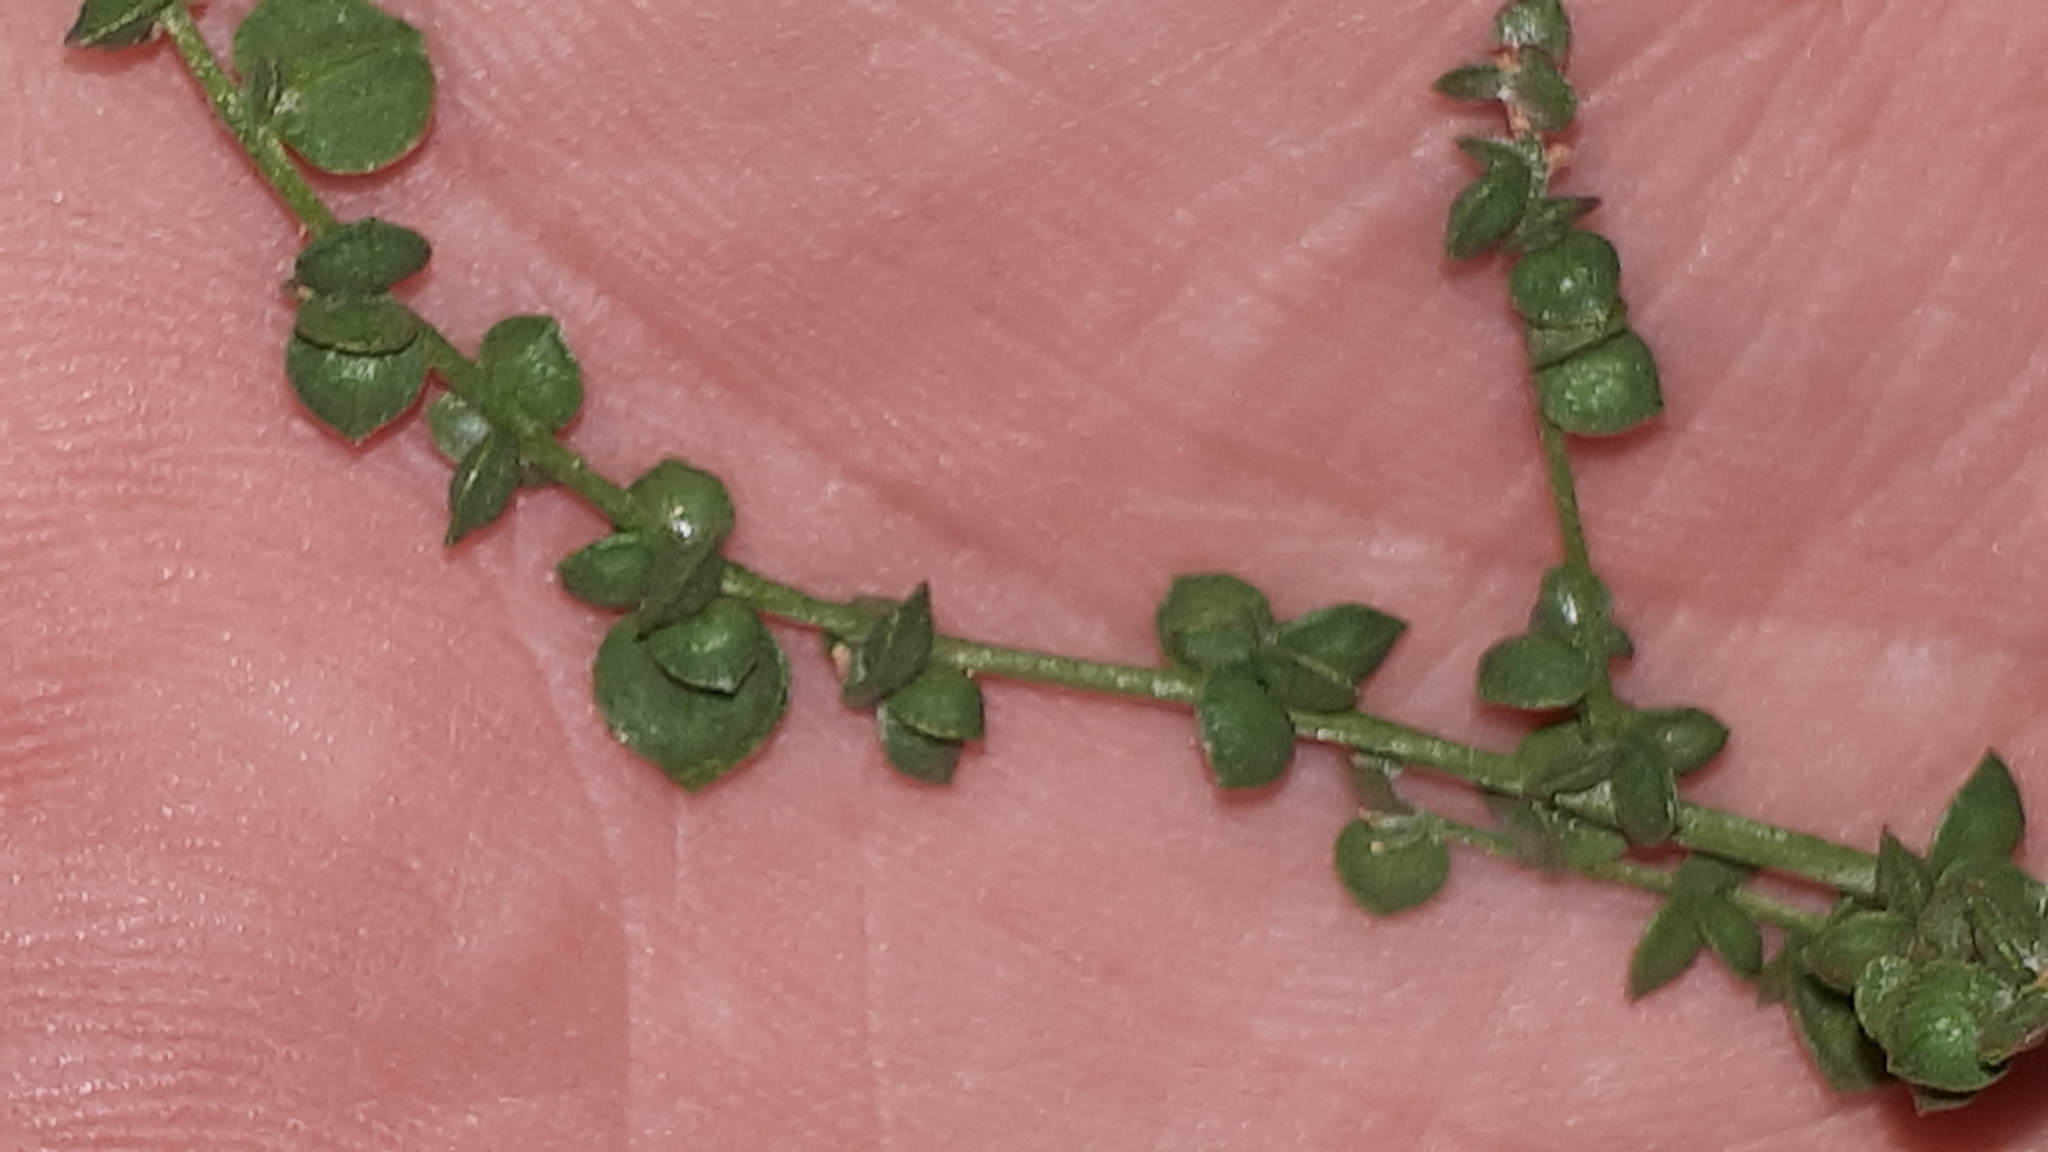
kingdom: Plantae
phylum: Tracheophyta
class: Magnoliopsida
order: Caryophyllales
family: Amaranthaceae
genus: Atriplex
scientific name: Atriplex micrantha
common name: Twoscale saltbush
